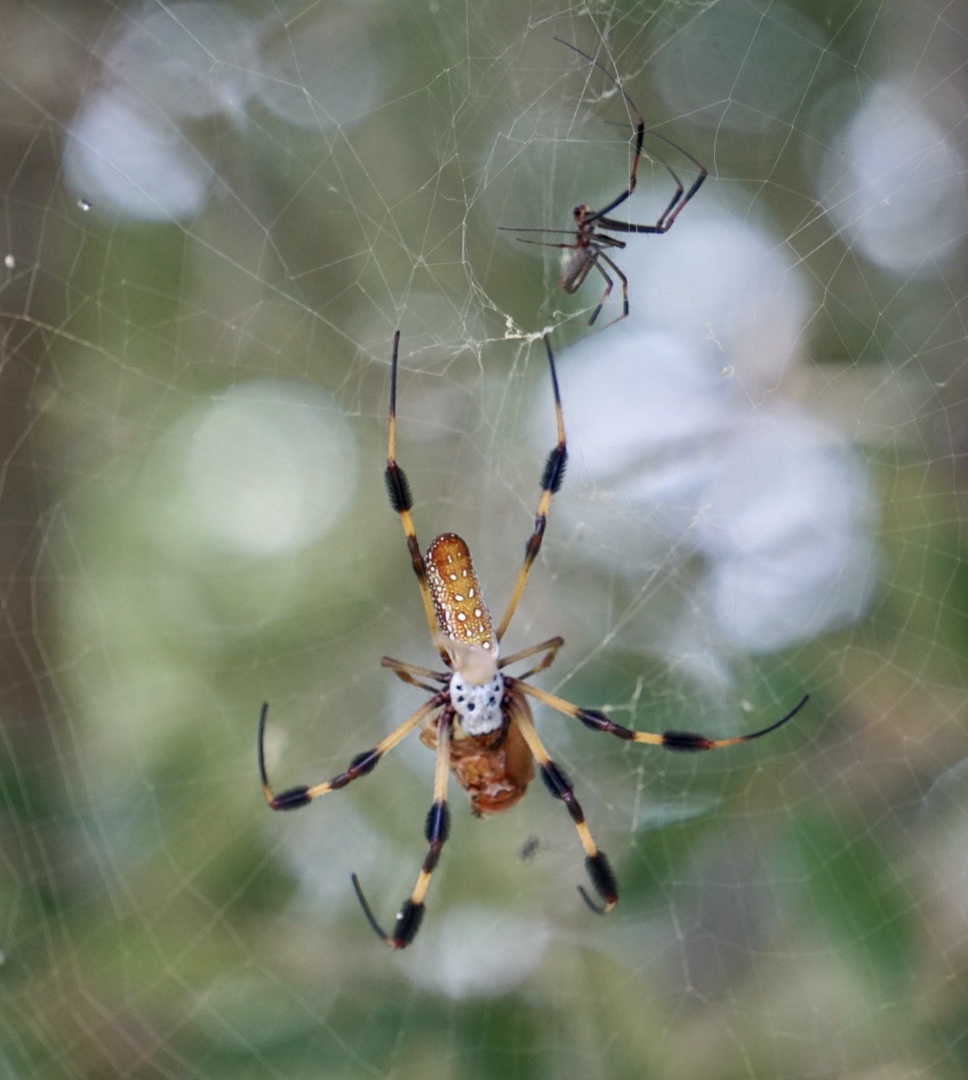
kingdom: Animalia
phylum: Arthropoda
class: Arachnida
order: Araneae
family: Araneidae
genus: Trichonephila
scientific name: Trichonephila clavipes
